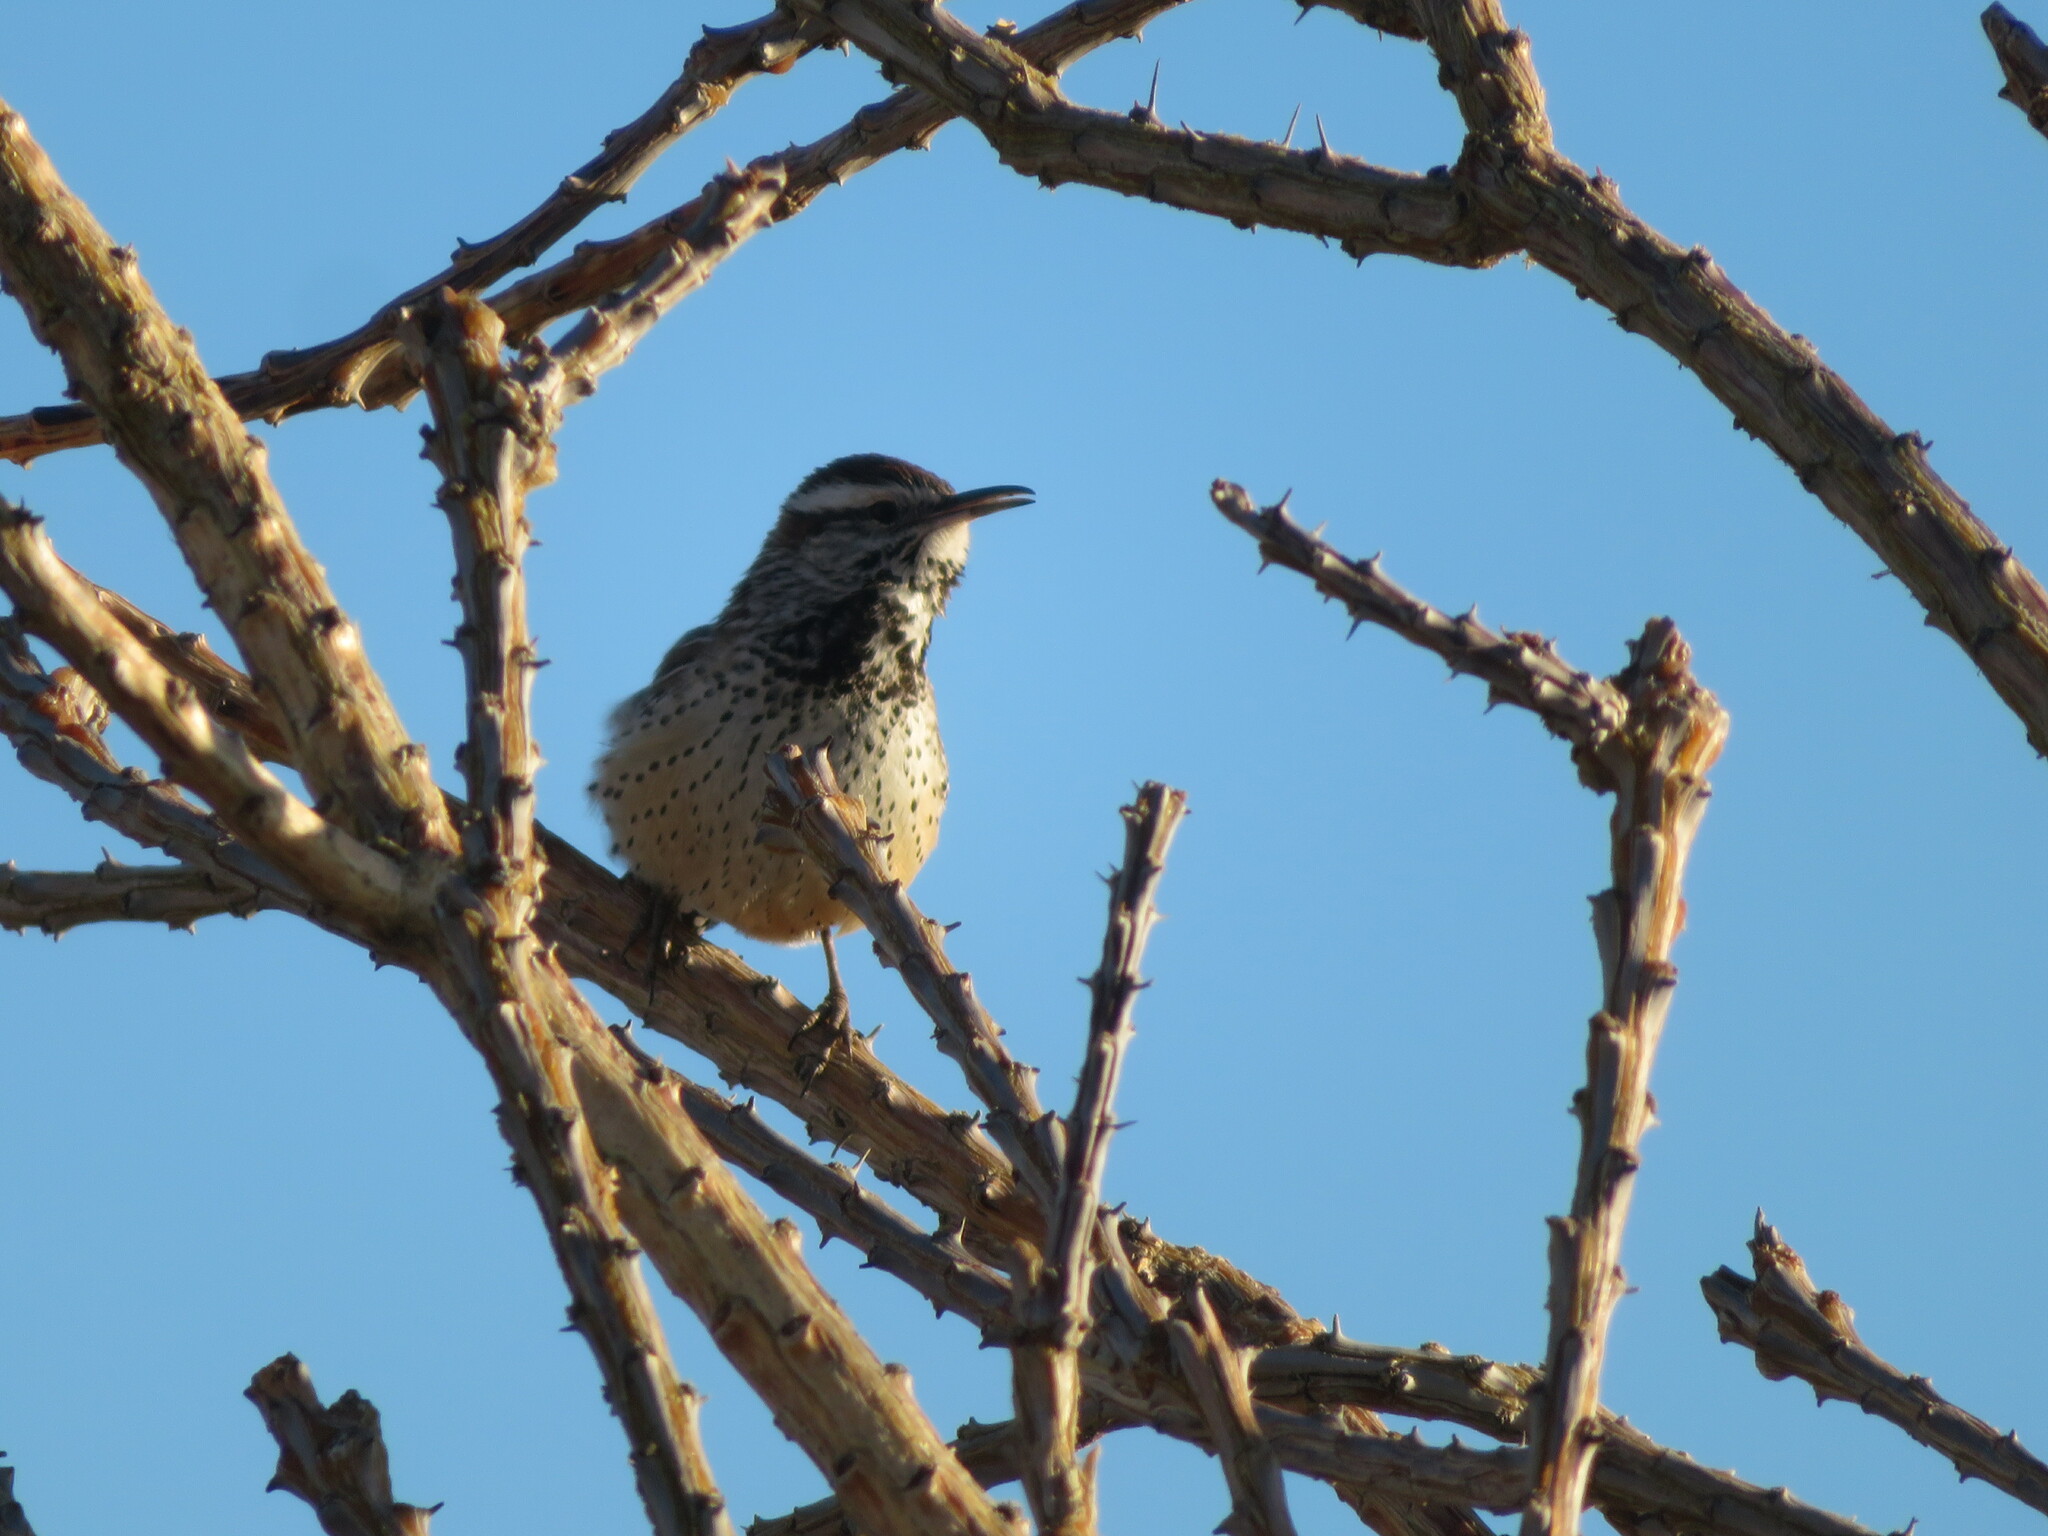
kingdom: Animalia
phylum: Chordata
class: Aves
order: Passeriformes
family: Troglodytidae
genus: Campylorhynchus
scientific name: Campylorhynchus brunneicapillus
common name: Cactus wren
